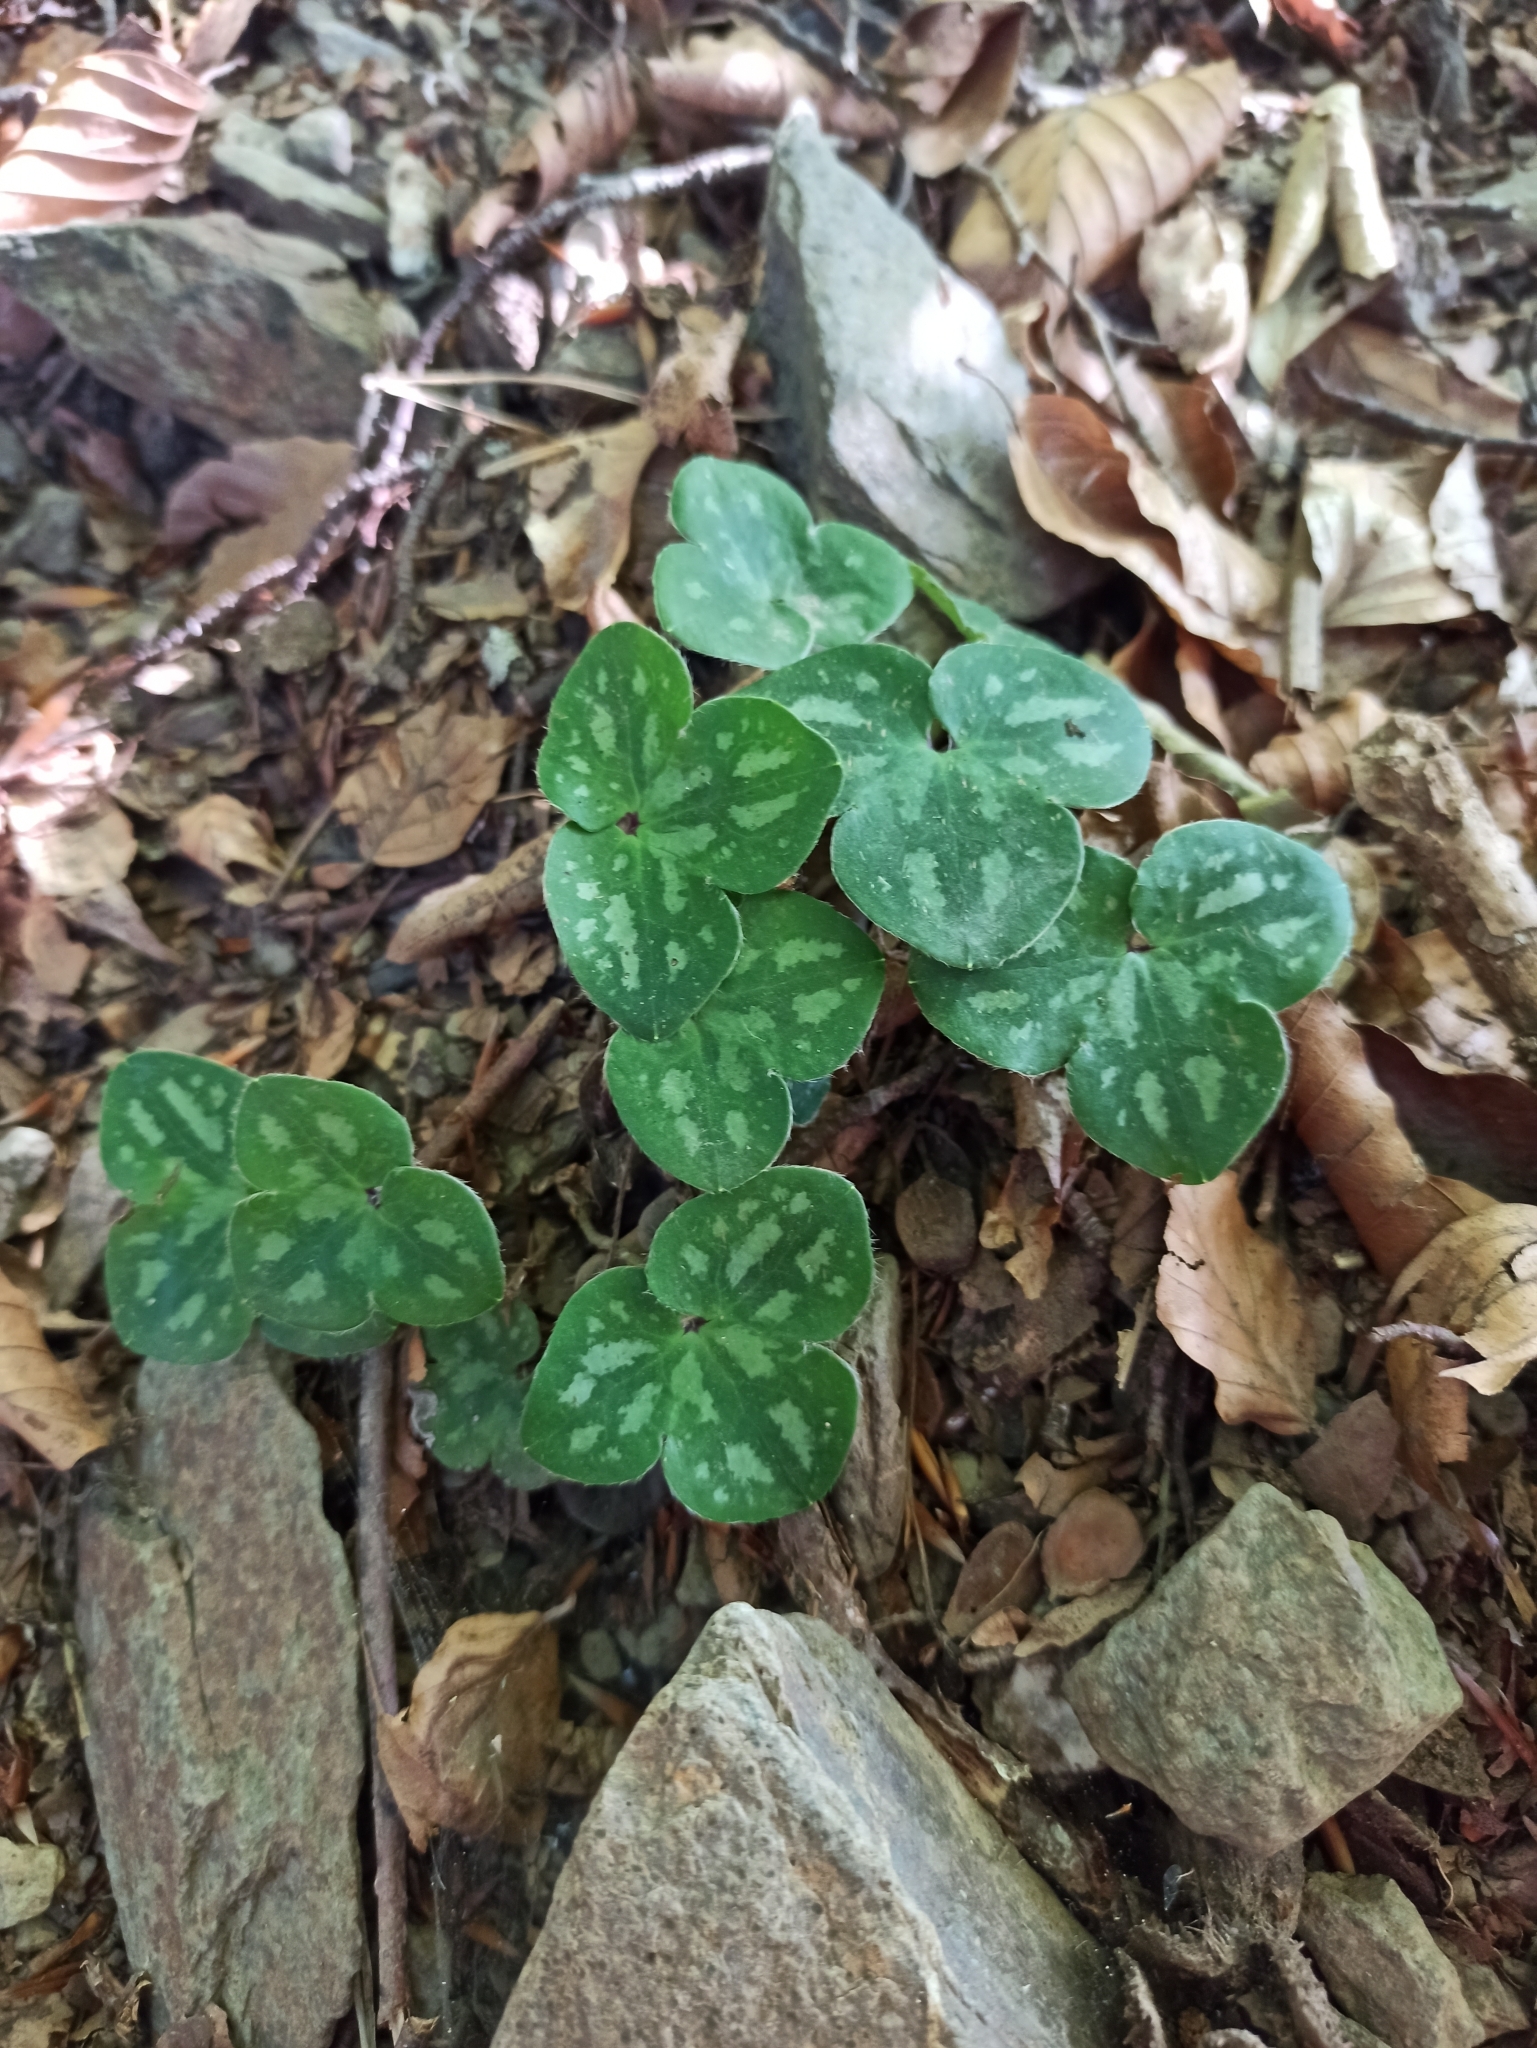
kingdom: Plantae
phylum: Tracheophyta
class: Magnoliopsida
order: Ranunculales
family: Ranunculaceae
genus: Hepatica
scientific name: Hepatica nobilis
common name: Liverleaf
